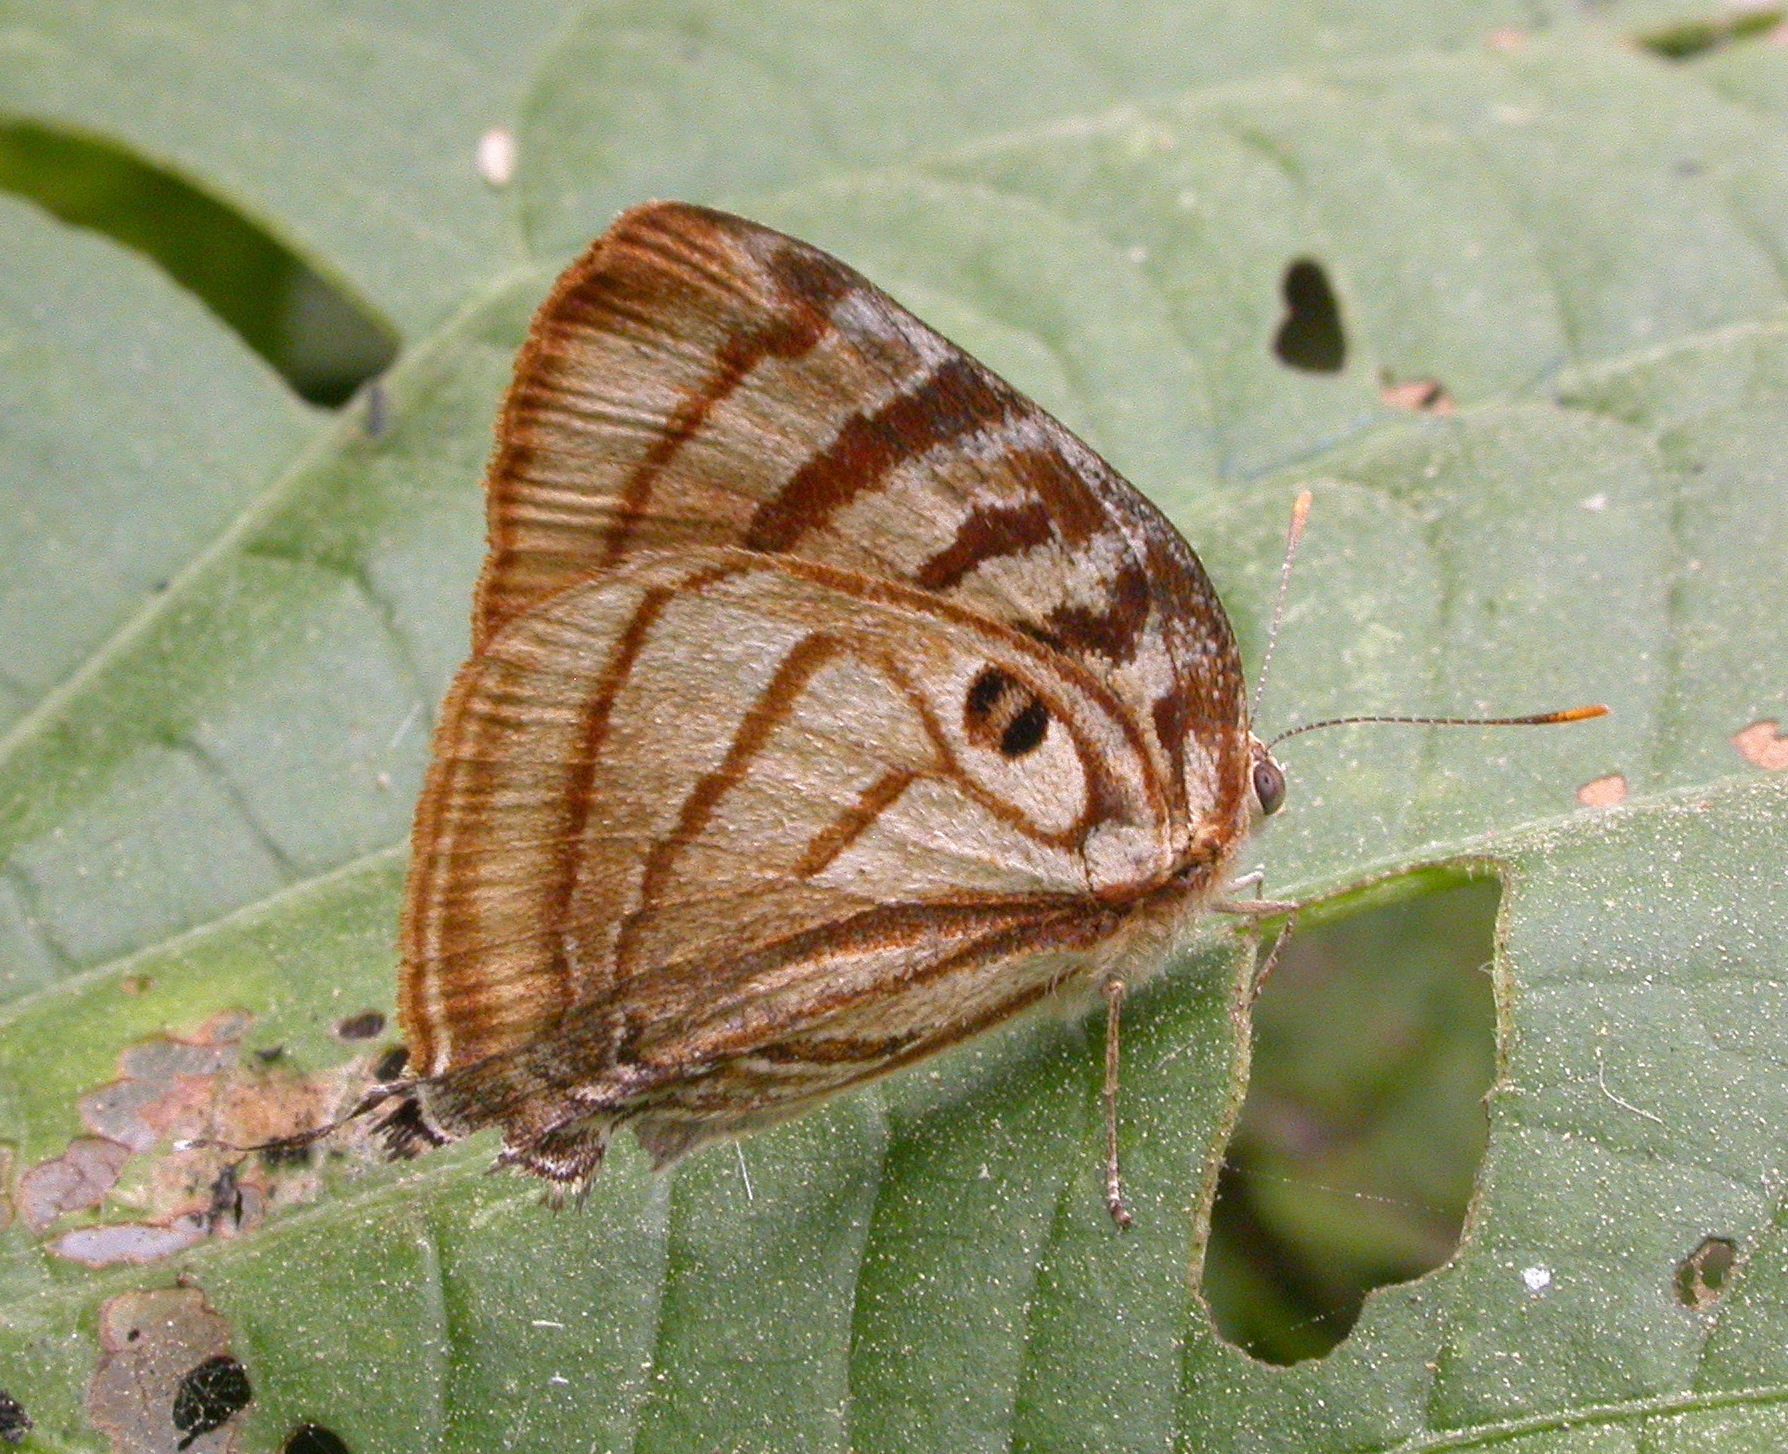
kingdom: Animalia
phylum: Arthropoda
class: Insecta
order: Lepidoptera
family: Lycaenidae
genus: Rekoa
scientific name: Rekoa meton
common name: Meton hairstreak
